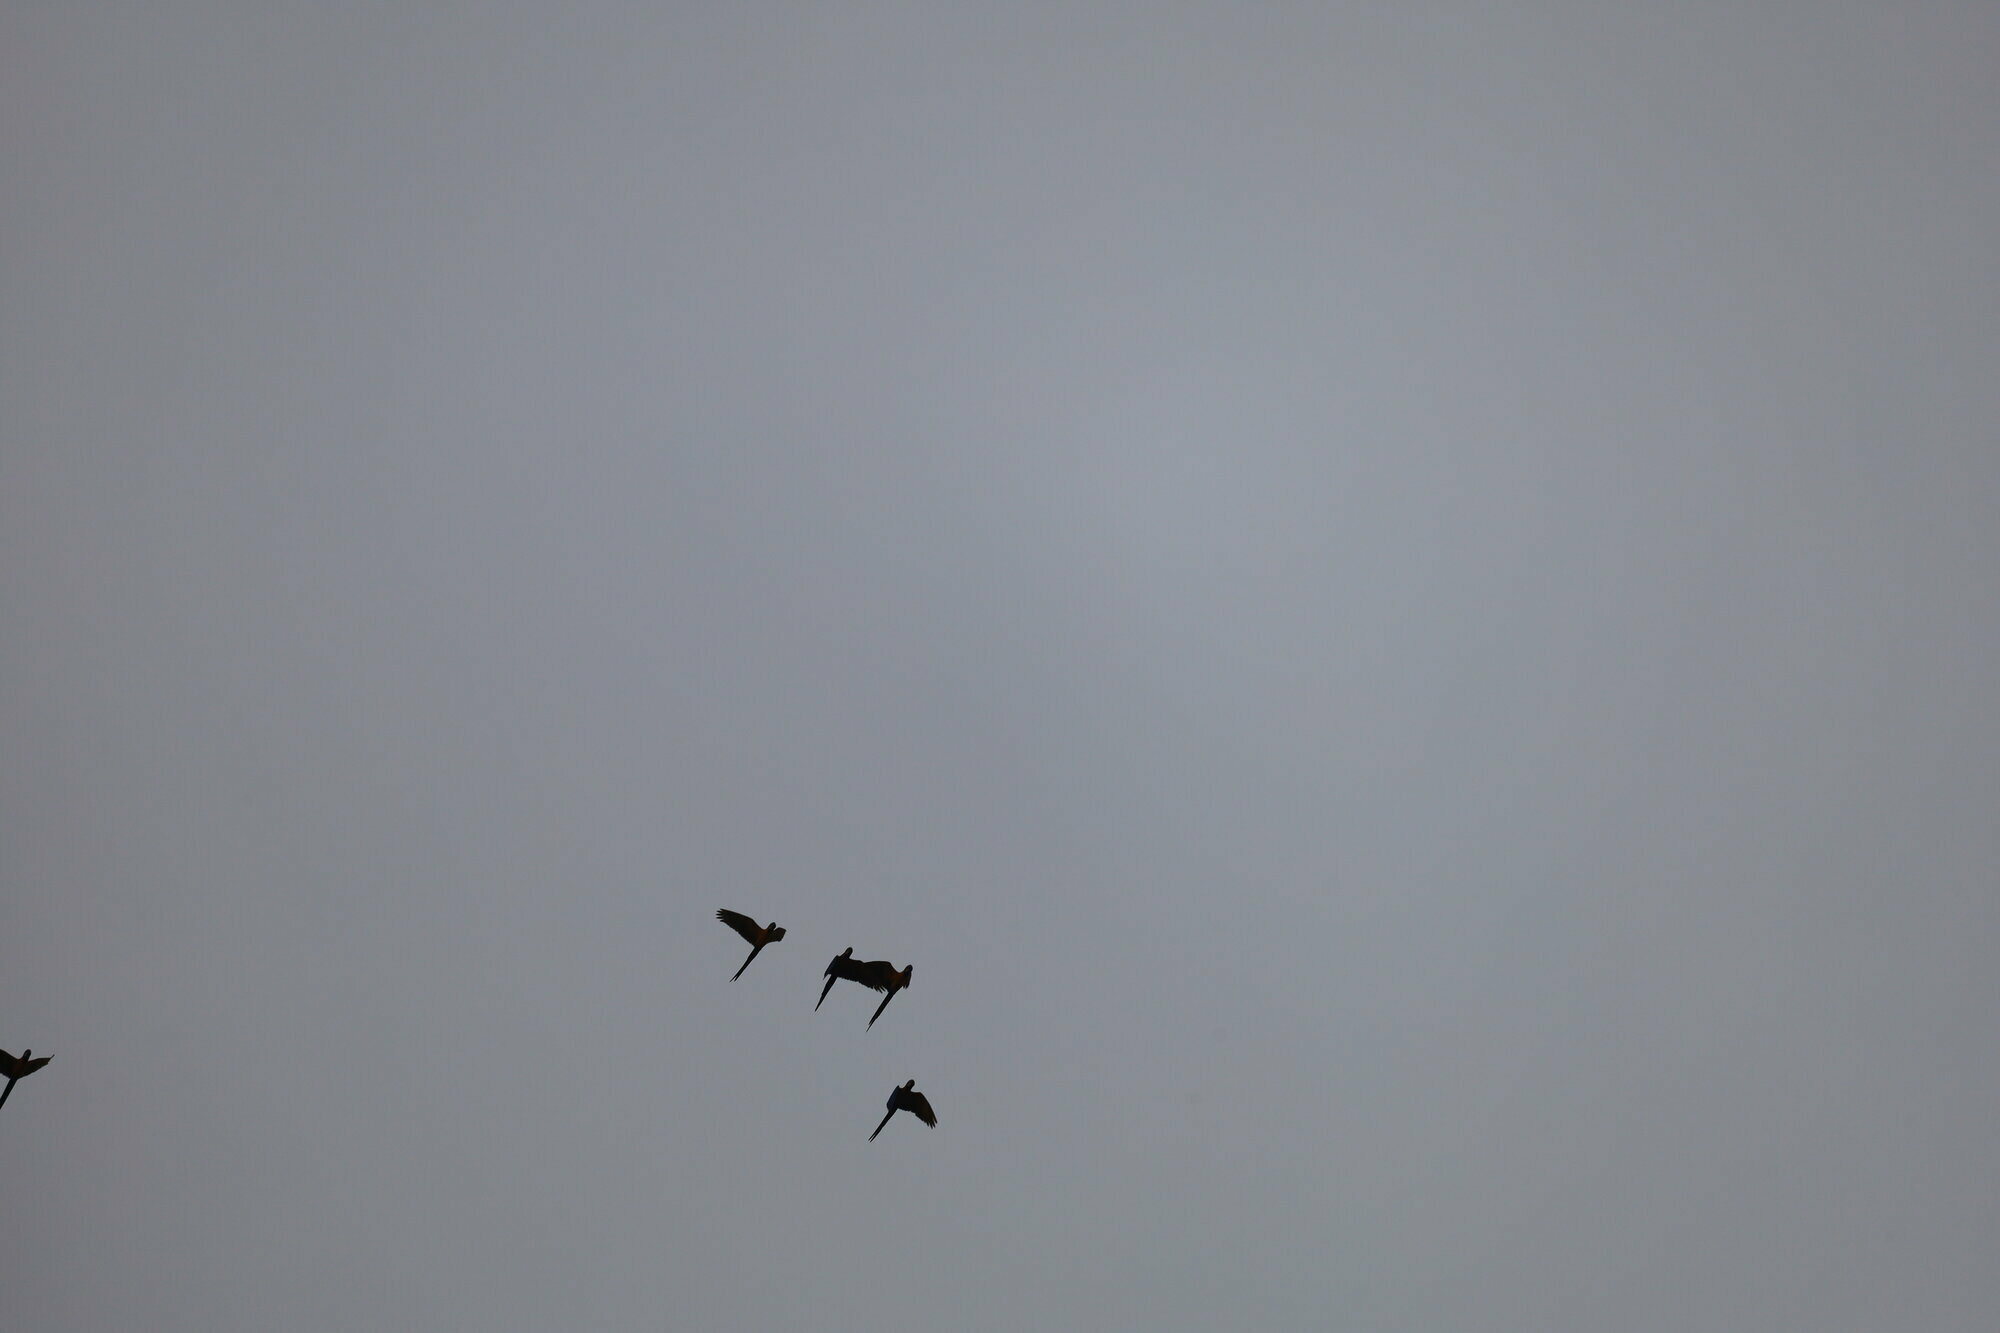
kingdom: Animalia
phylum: Chordata
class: Aves
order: Psittaciformes
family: Psittacidae
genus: Ara
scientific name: Ara ararauna
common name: Blue-and-yellow macaw
